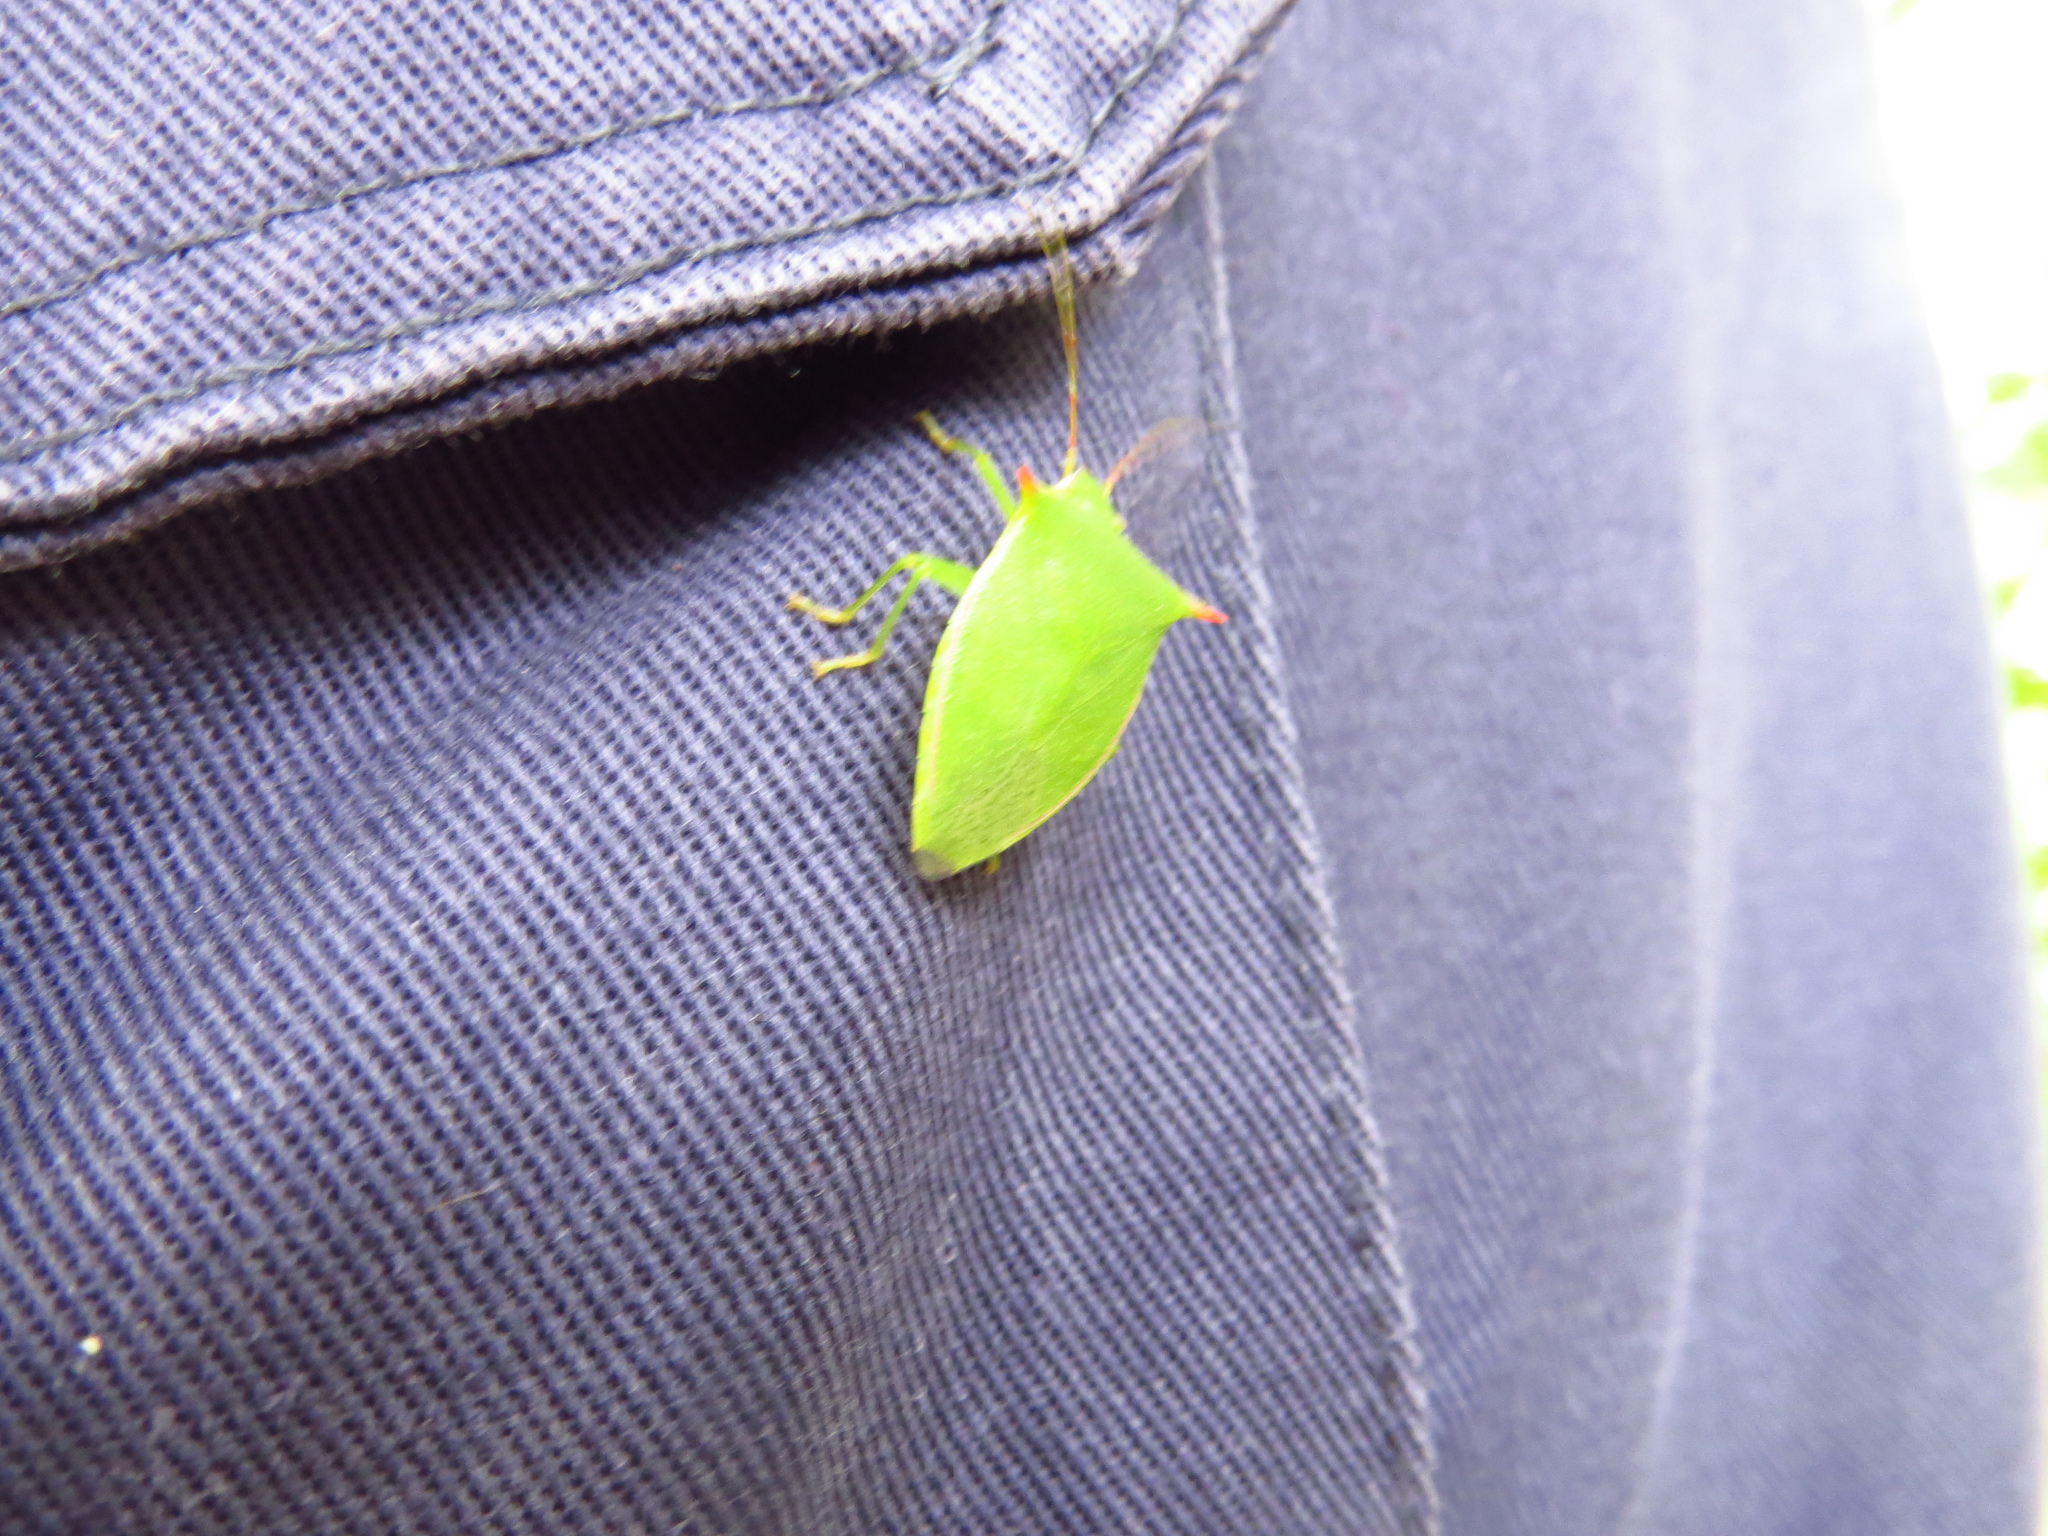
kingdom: Animalia
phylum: Arthropoda
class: Insecta
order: Hemiptera
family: Pentatomidae
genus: Loxa
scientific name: Loxa deducta
